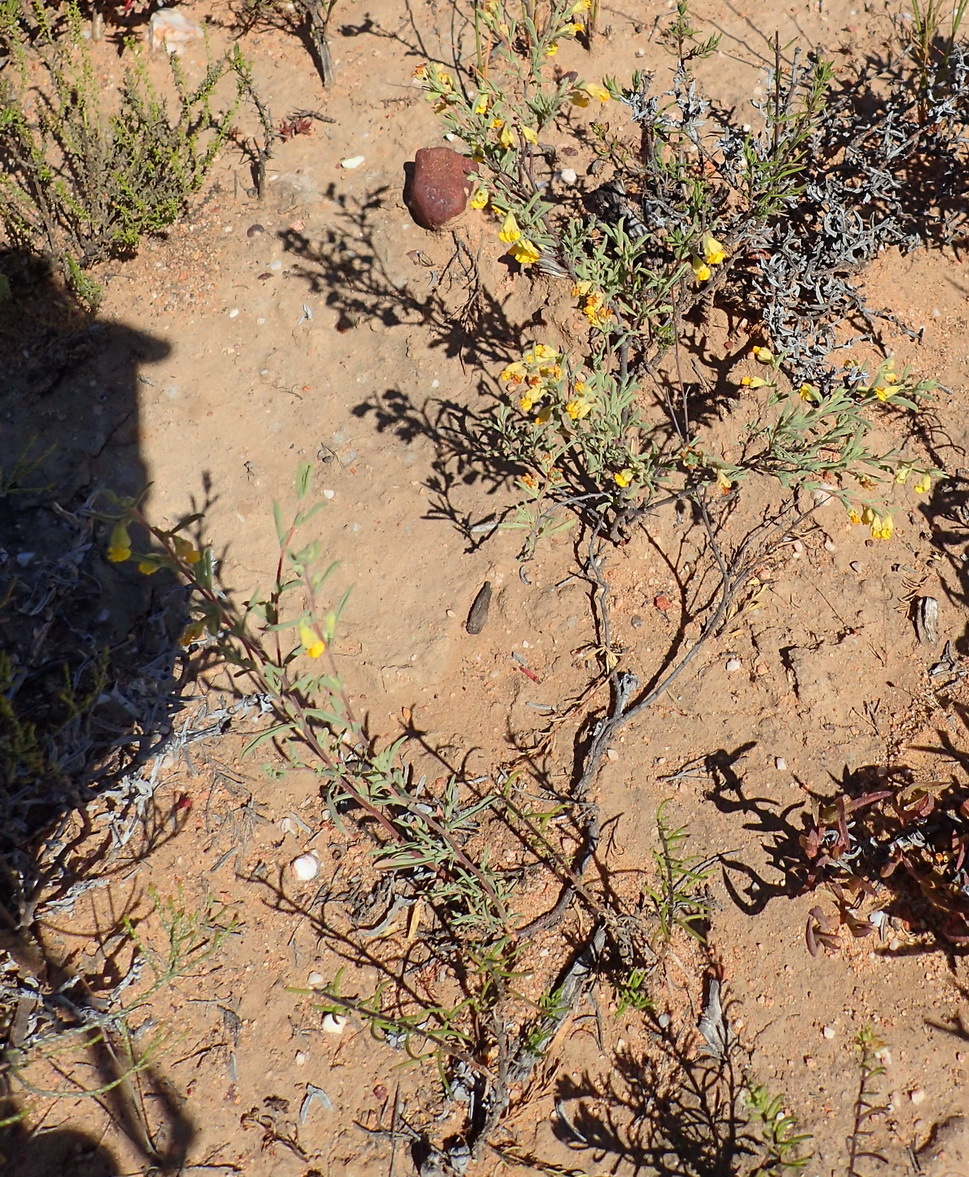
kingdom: Plantae
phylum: Tracheophyta
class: Magnoliopsida
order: Malvales
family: Malvaceae
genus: Hermannia
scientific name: Hermannia diversistipula
